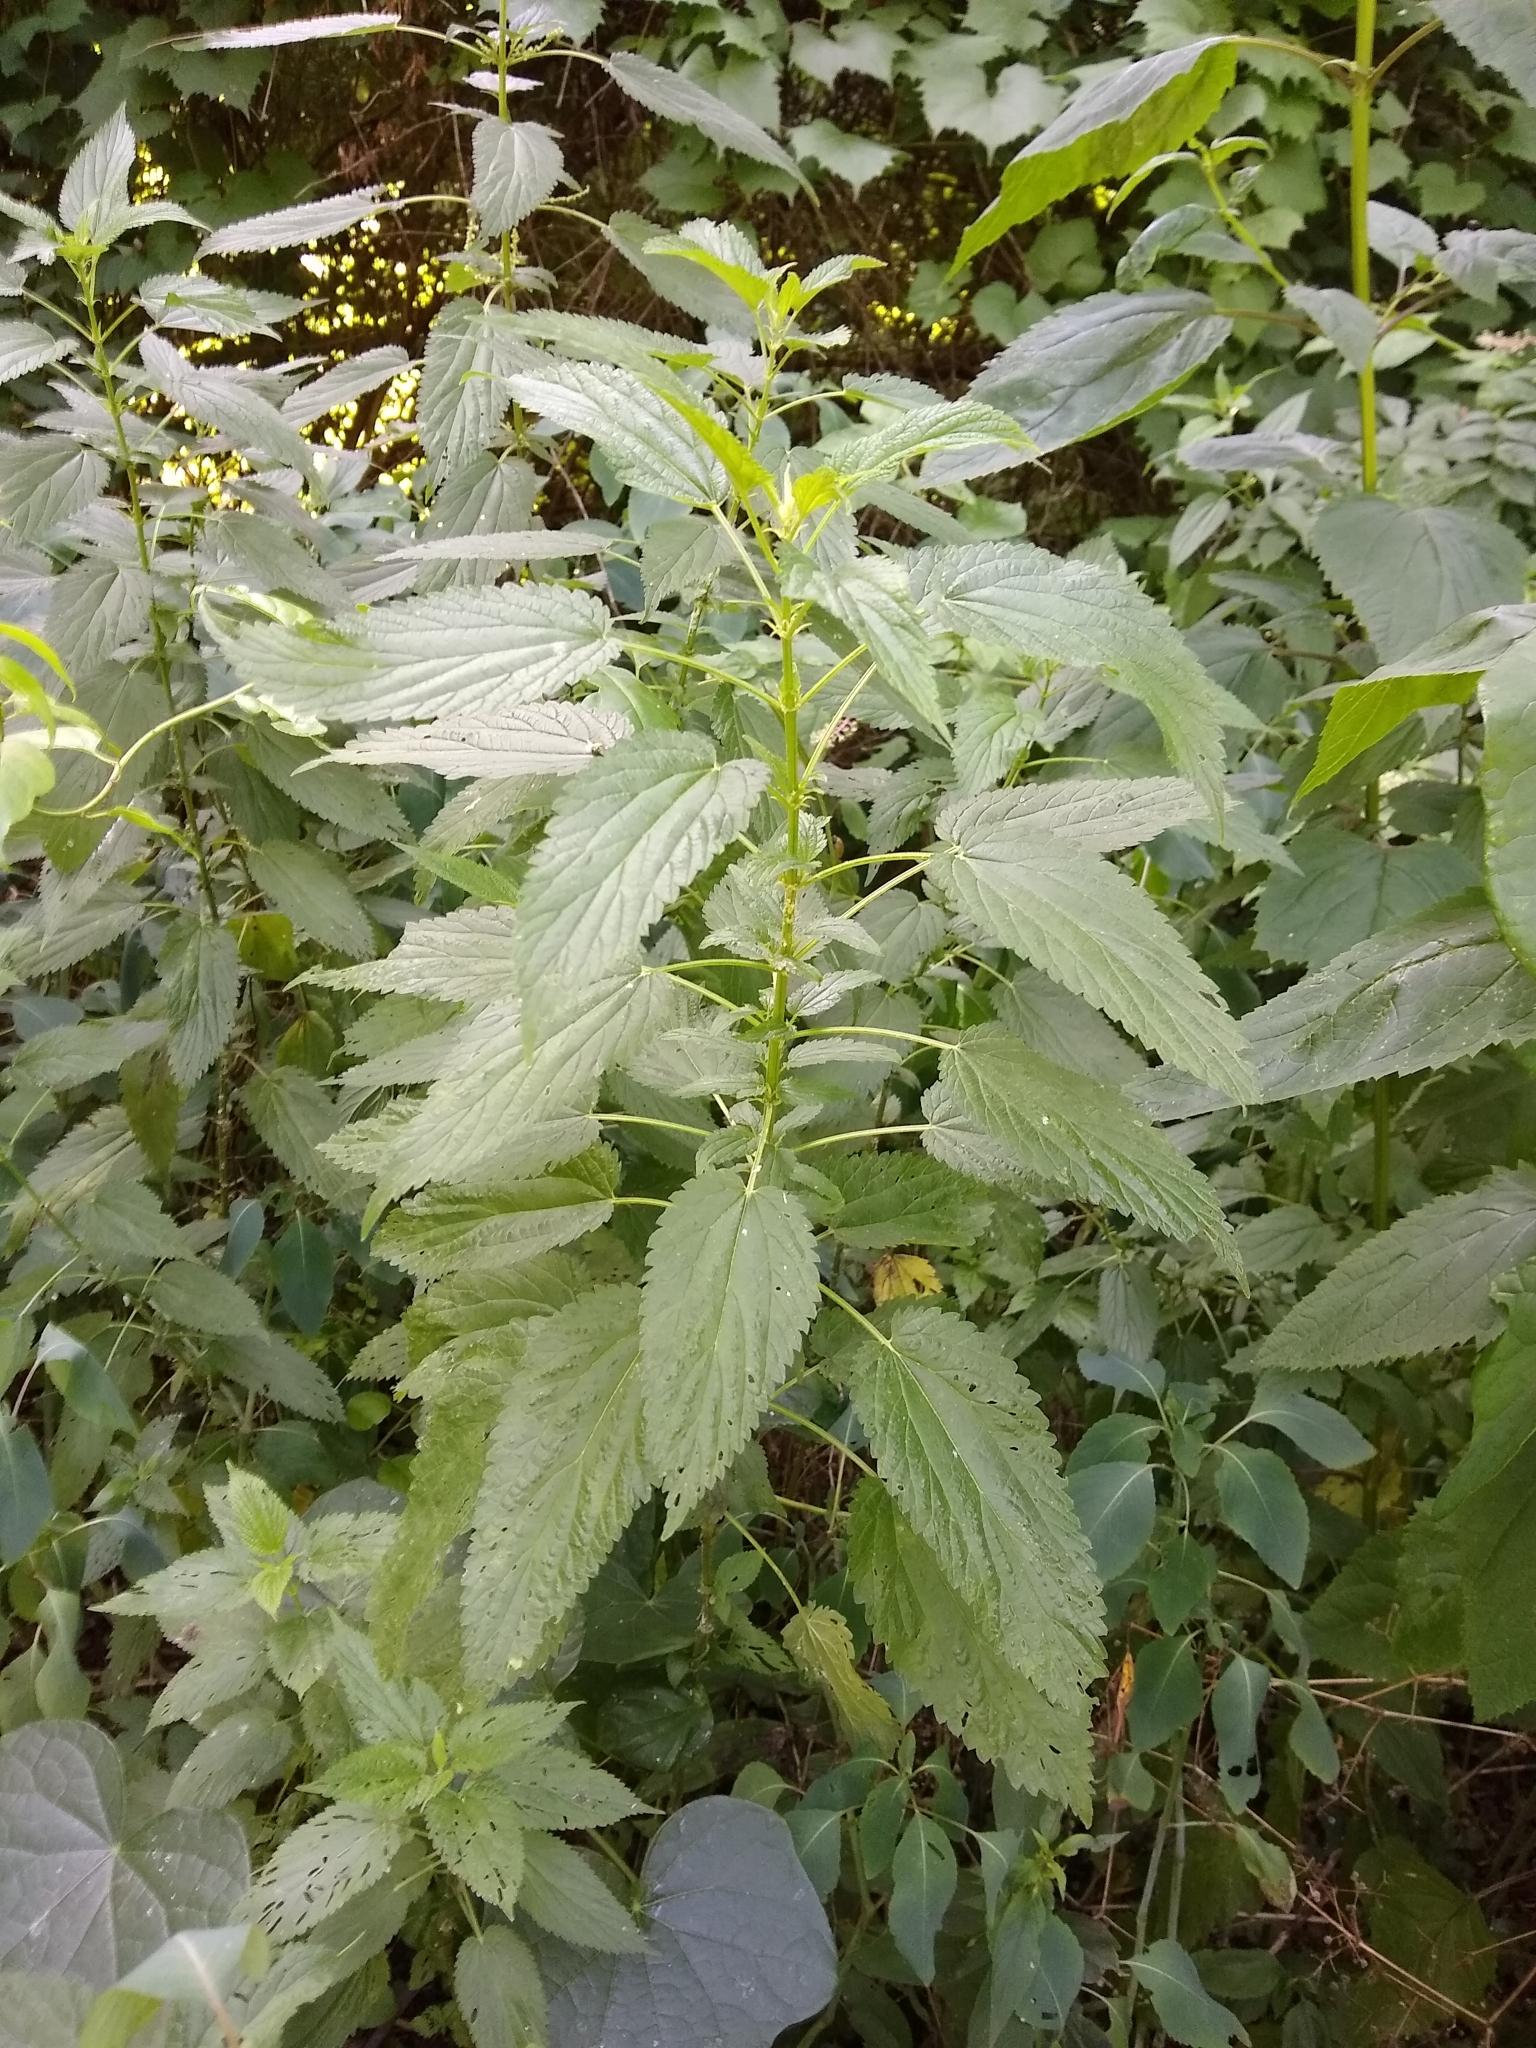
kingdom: Plantae
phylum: Tracheophyta
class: Magnoliopsida
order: Rosales
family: Urticaceae
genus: Urtica
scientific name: Urtica dioica
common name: Common nettle
